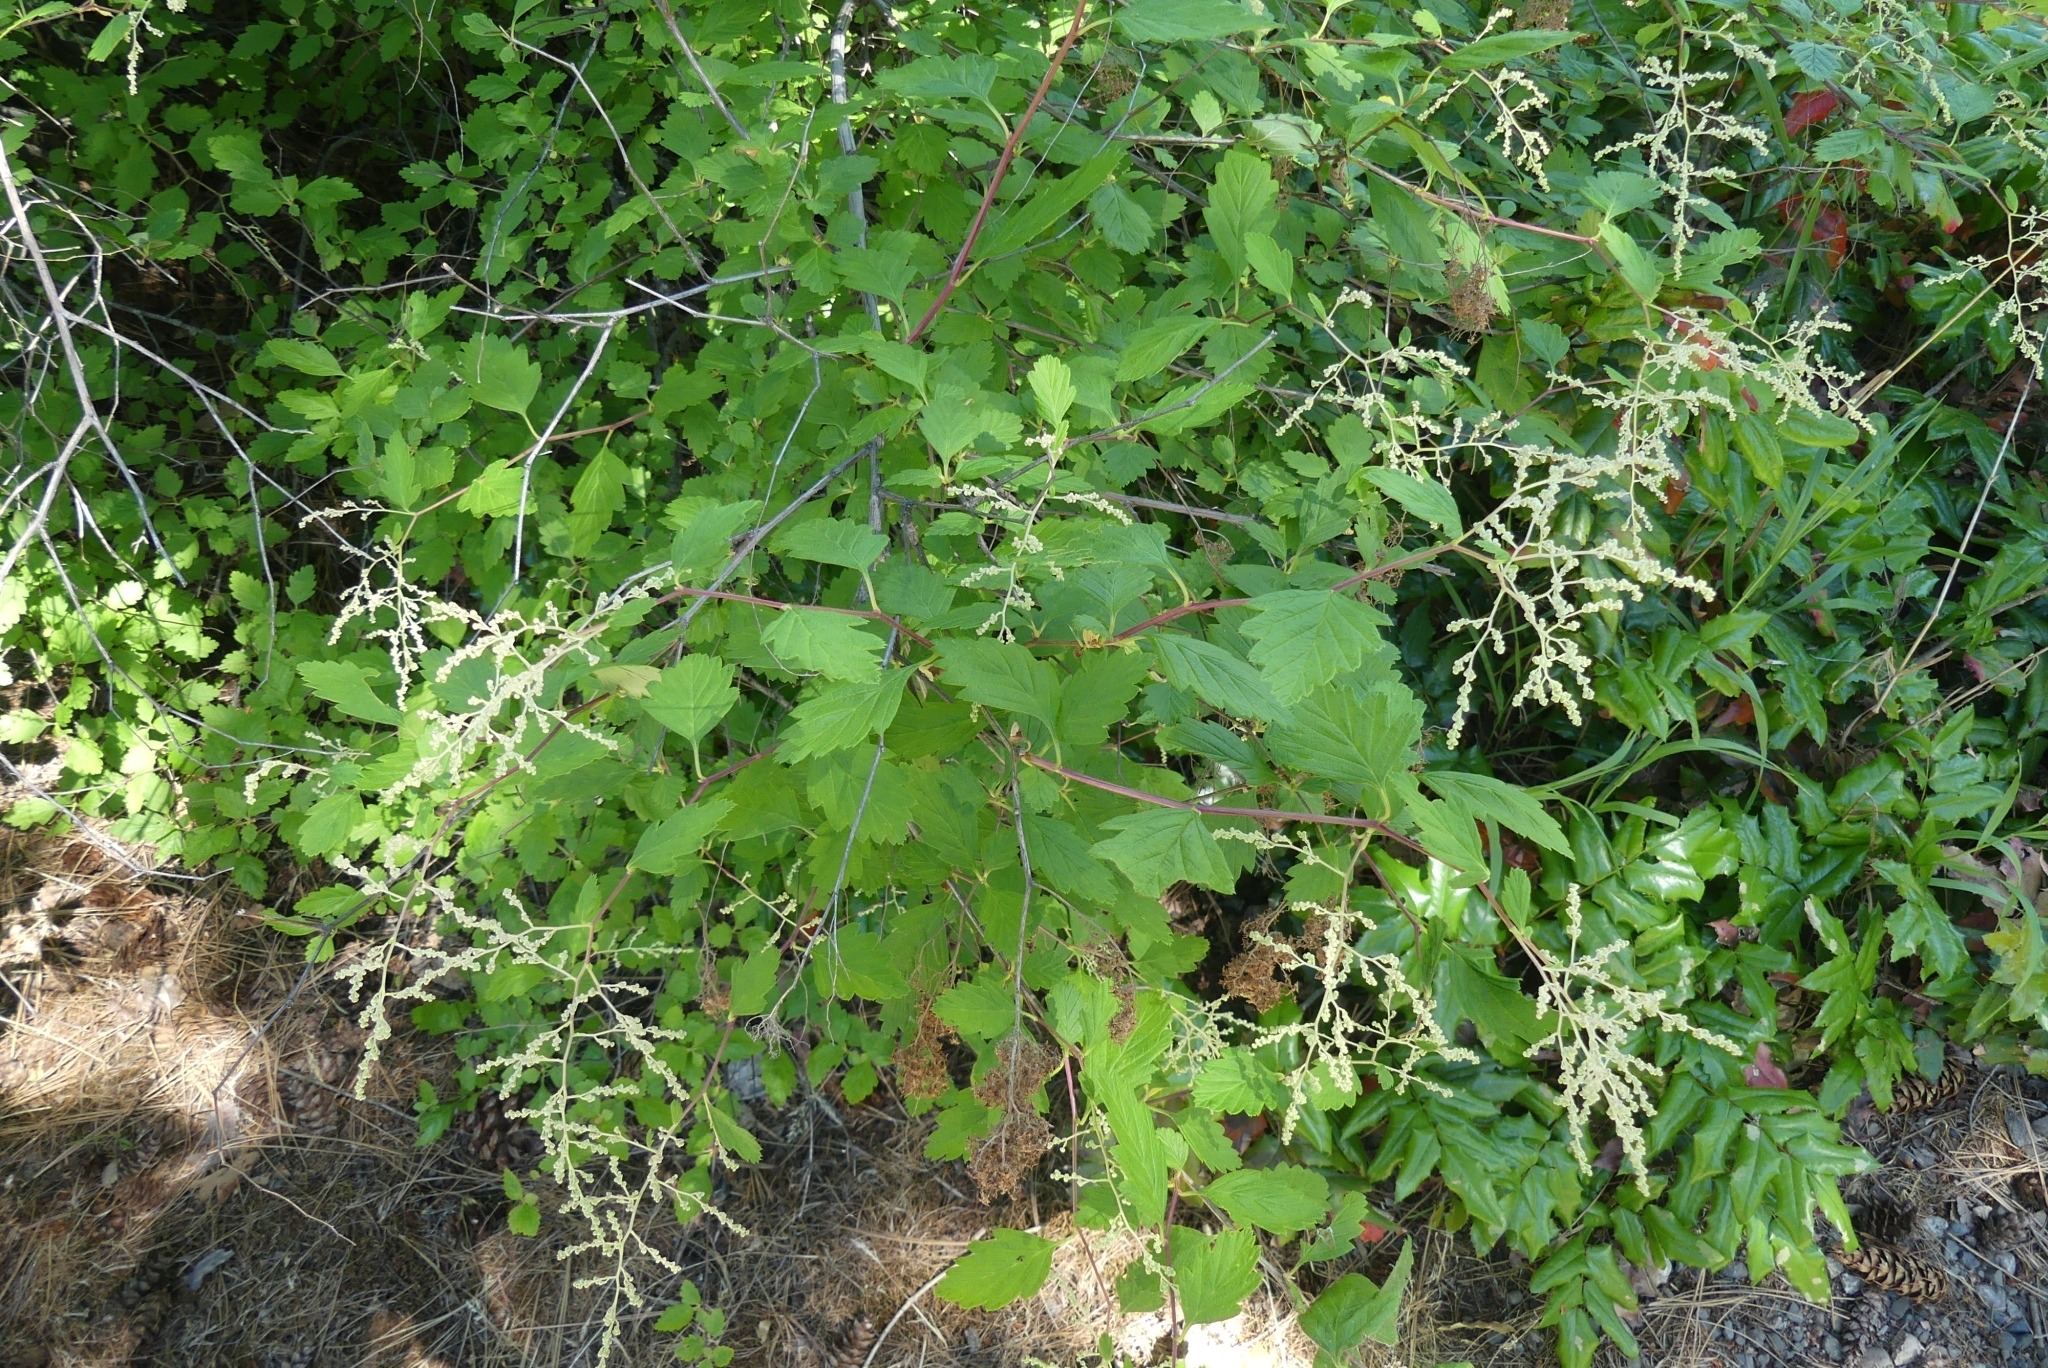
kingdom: Plantae
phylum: Tracheophyta
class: Magnoliopsida
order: Rosales
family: Rosaceae
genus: Holodiscus
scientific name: Holodiscus discolor
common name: Oceanspray
